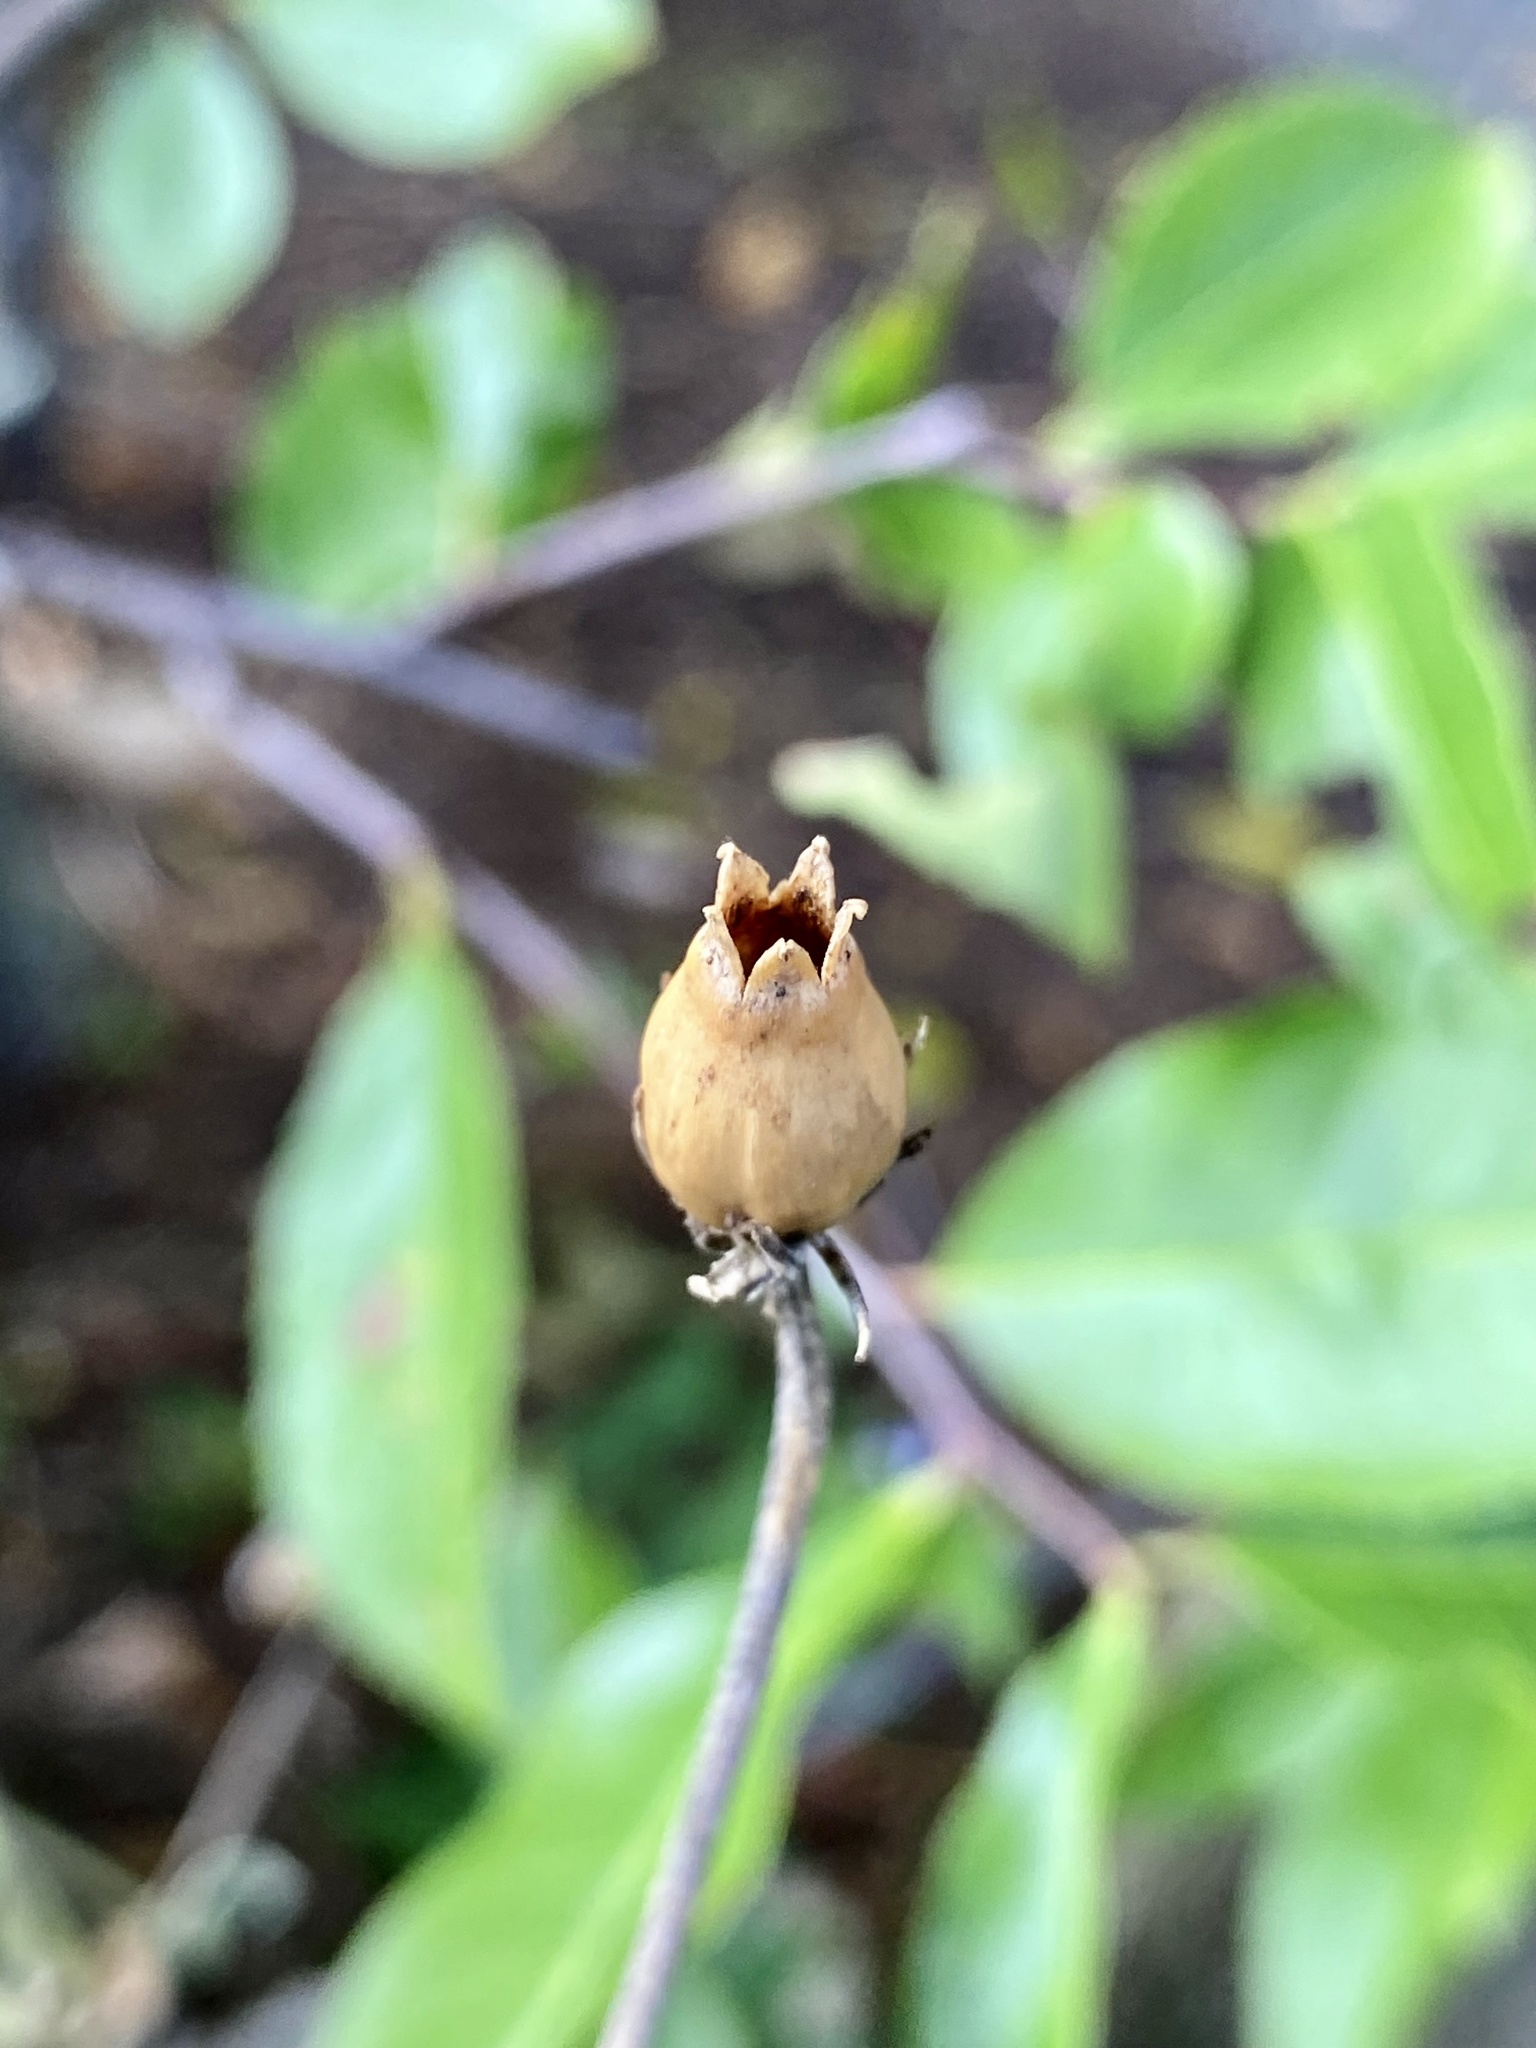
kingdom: Plantae
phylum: Tracheophyta
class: Magnoliopsida
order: Caryophyllales
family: Caryophyllaceae
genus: Silene
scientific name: Silene coronaria
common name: Rose campion
